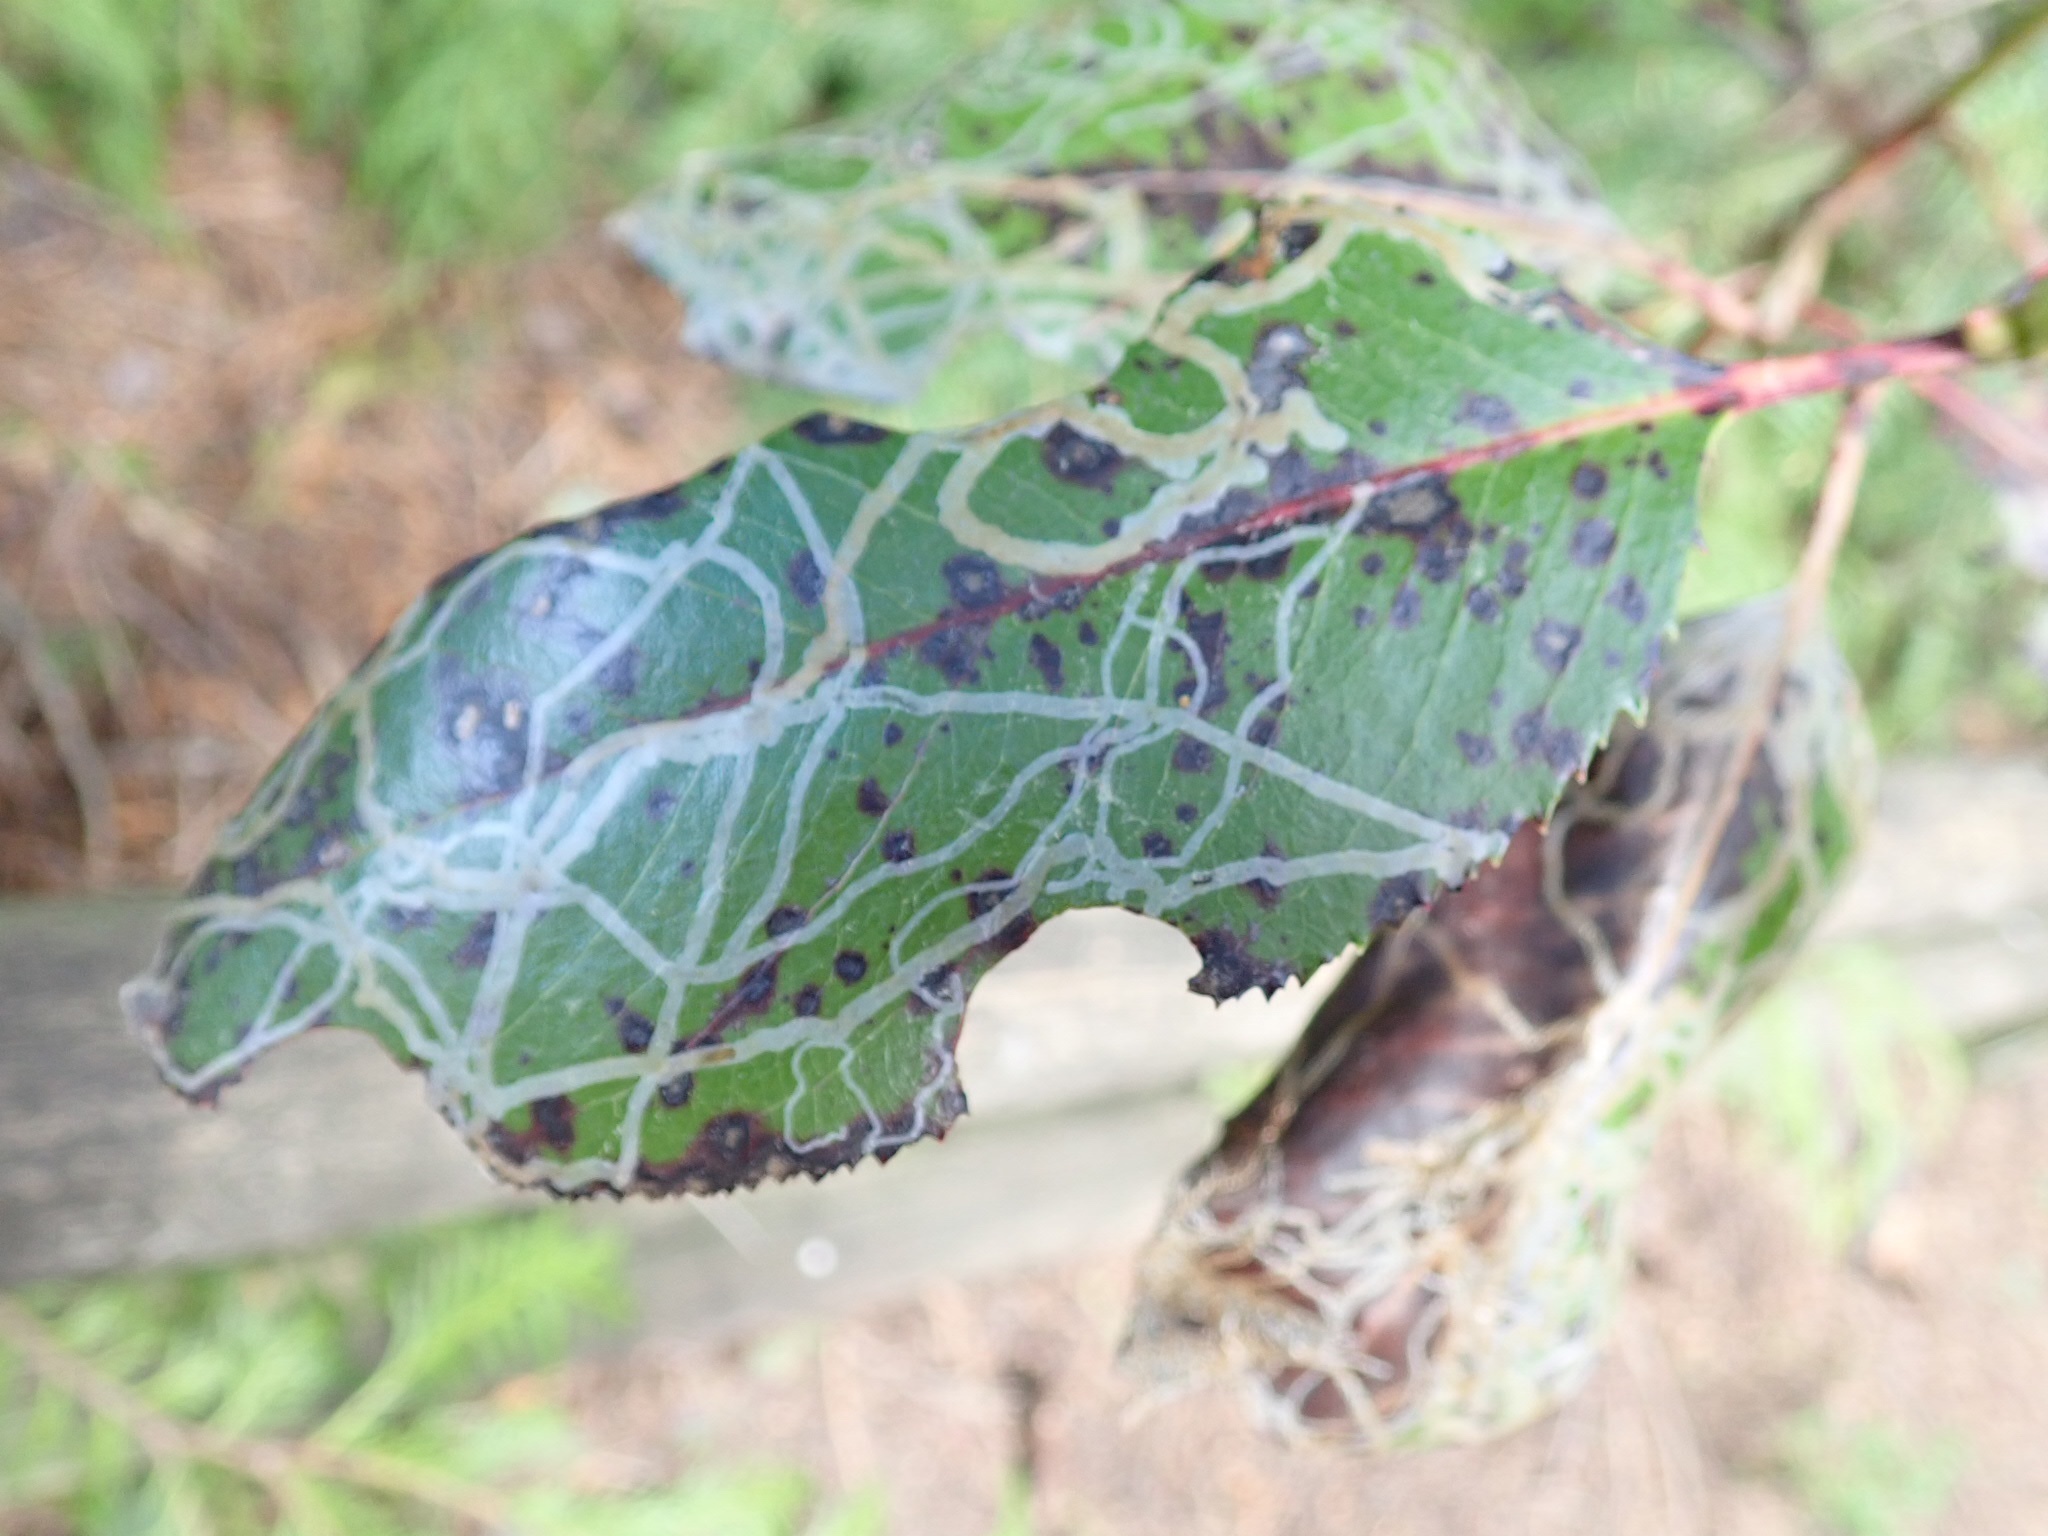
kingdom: Animalia
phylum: Arthropoda
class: Insecta
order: Lepidoptera
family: Gracillariidae
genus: Marmara
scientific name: Marmara arbutiella
